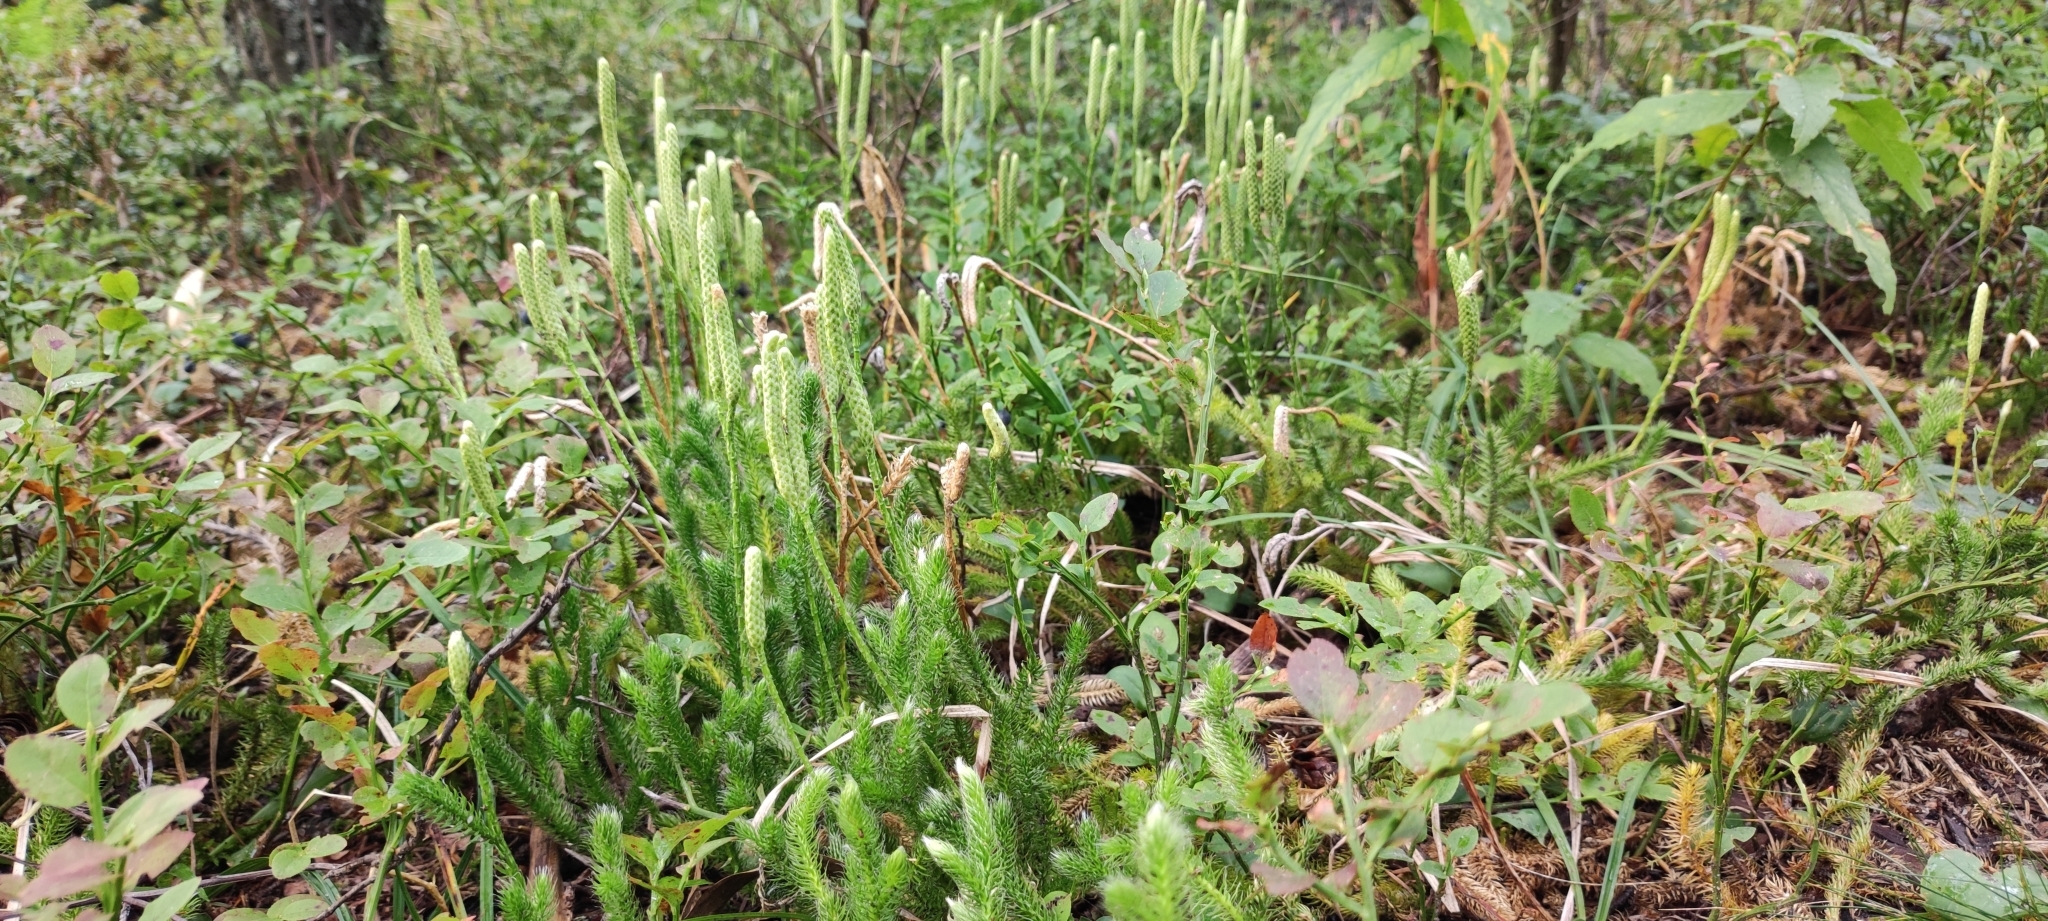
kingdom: Plantae
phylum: Tracheophyta
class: Lycopodiopsida
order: Lycopodiales
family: Lycopodiaceae
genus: Lycopodium
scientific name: Lycopodium clavatum
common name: Stag's-horn clubmoss
